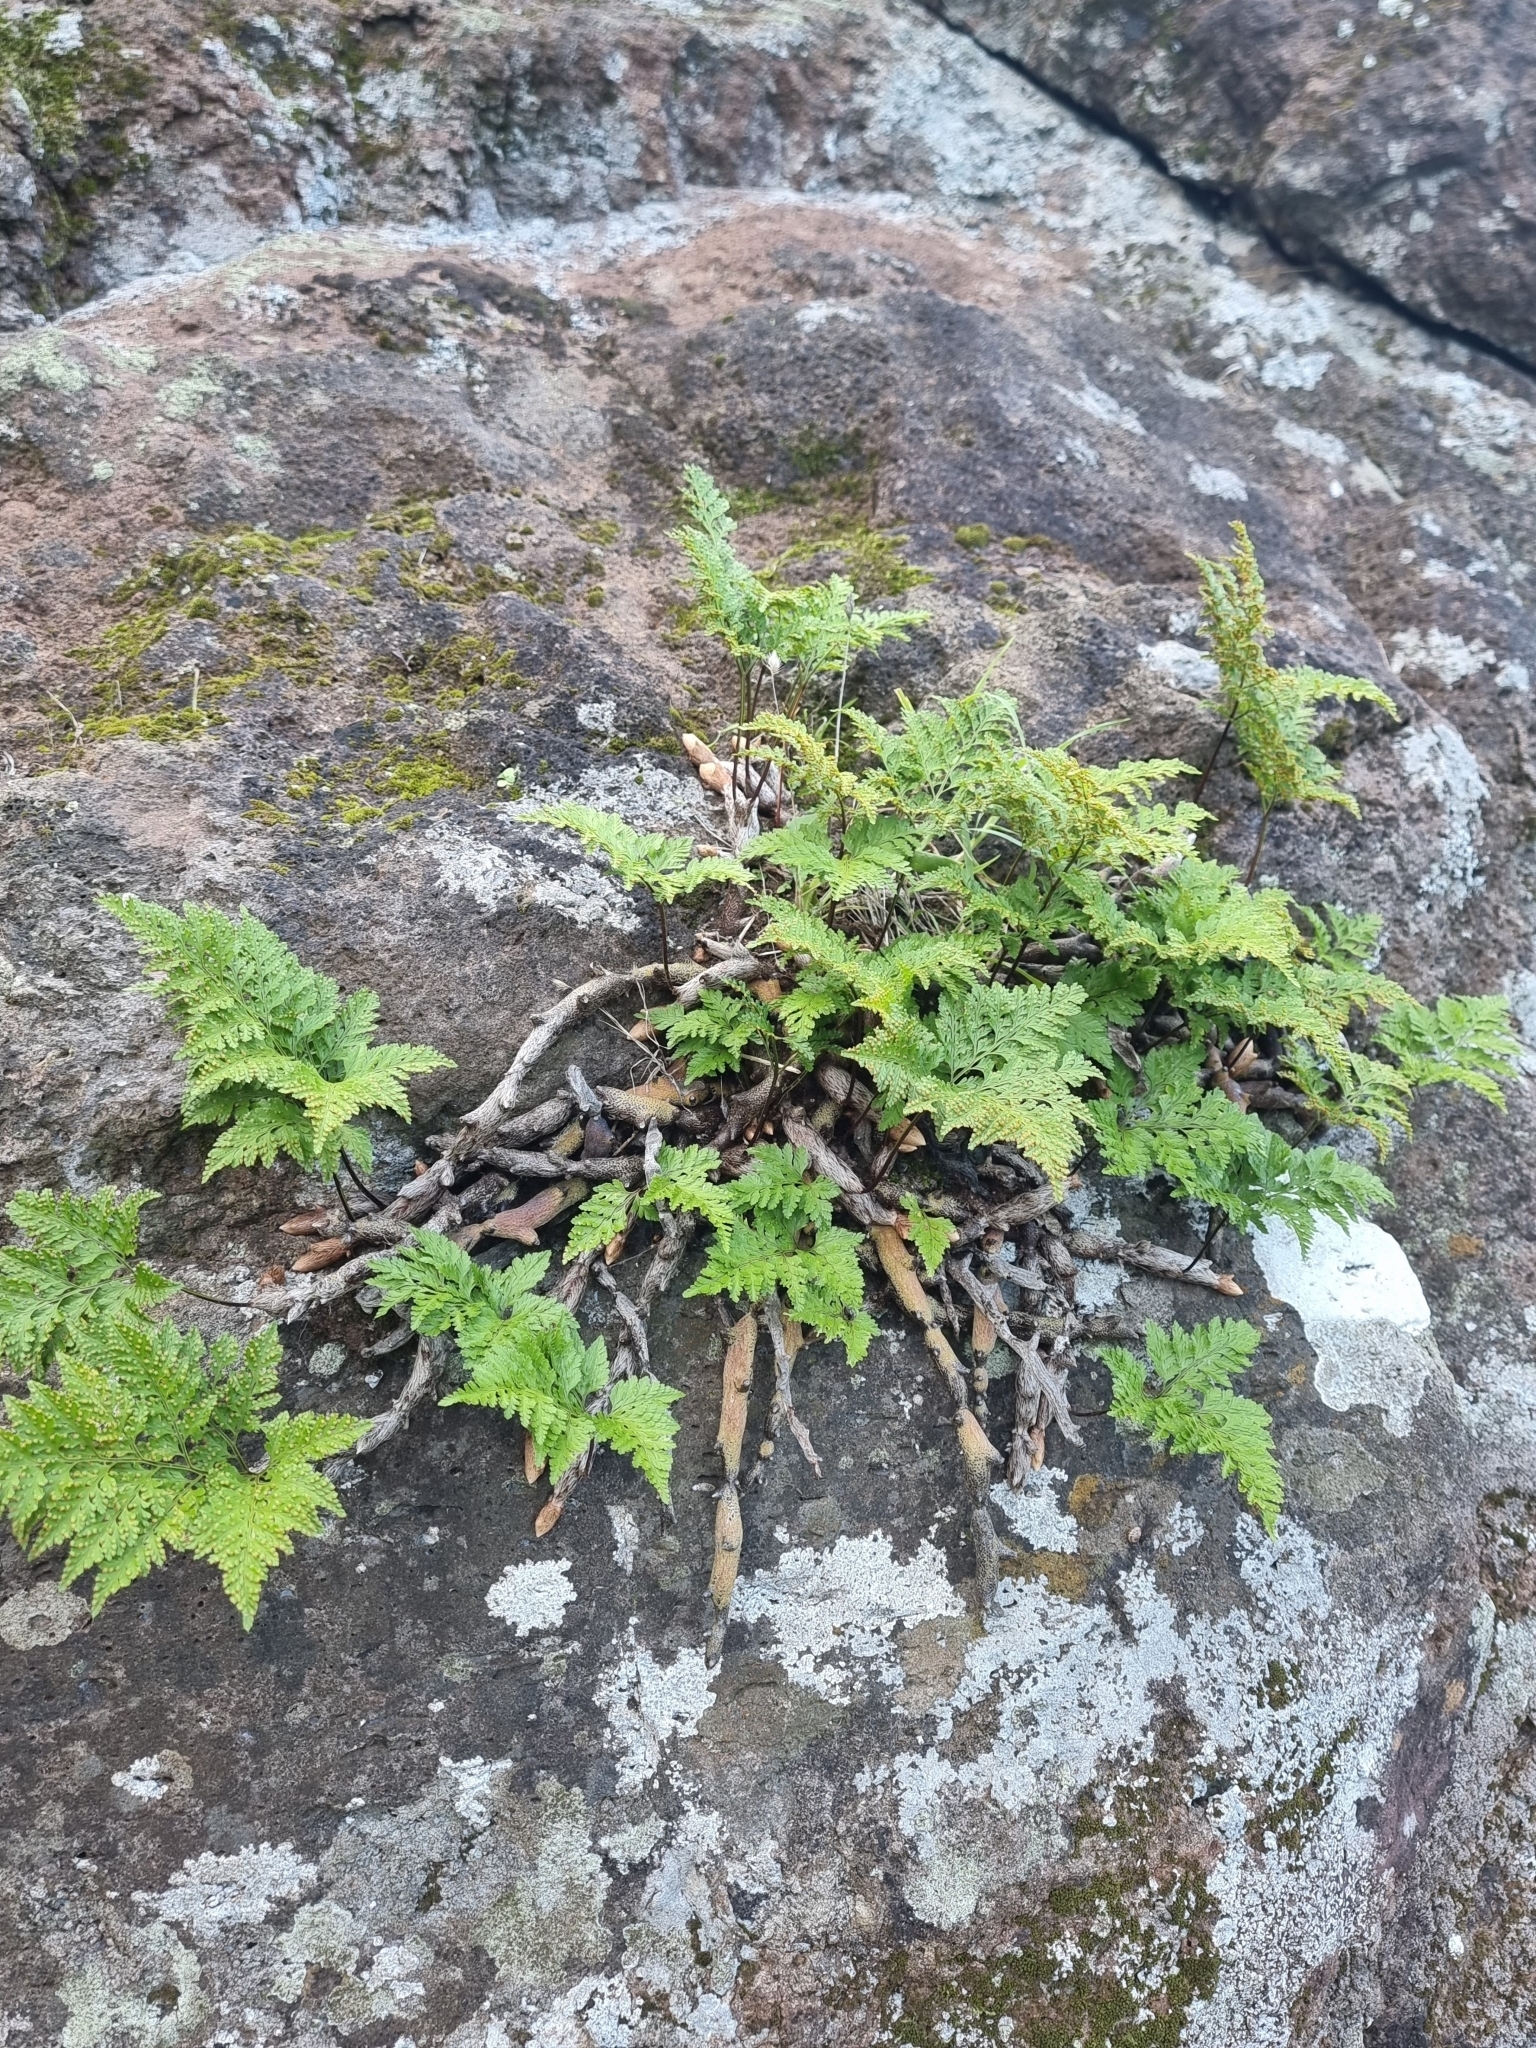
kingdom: Plantae
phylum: Tracheophyta
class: Polypodiopsida
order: Polypodiales
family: Davalliaceae
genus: Davallia
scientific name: Davallia canariensis
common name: Hare's-foot fern
